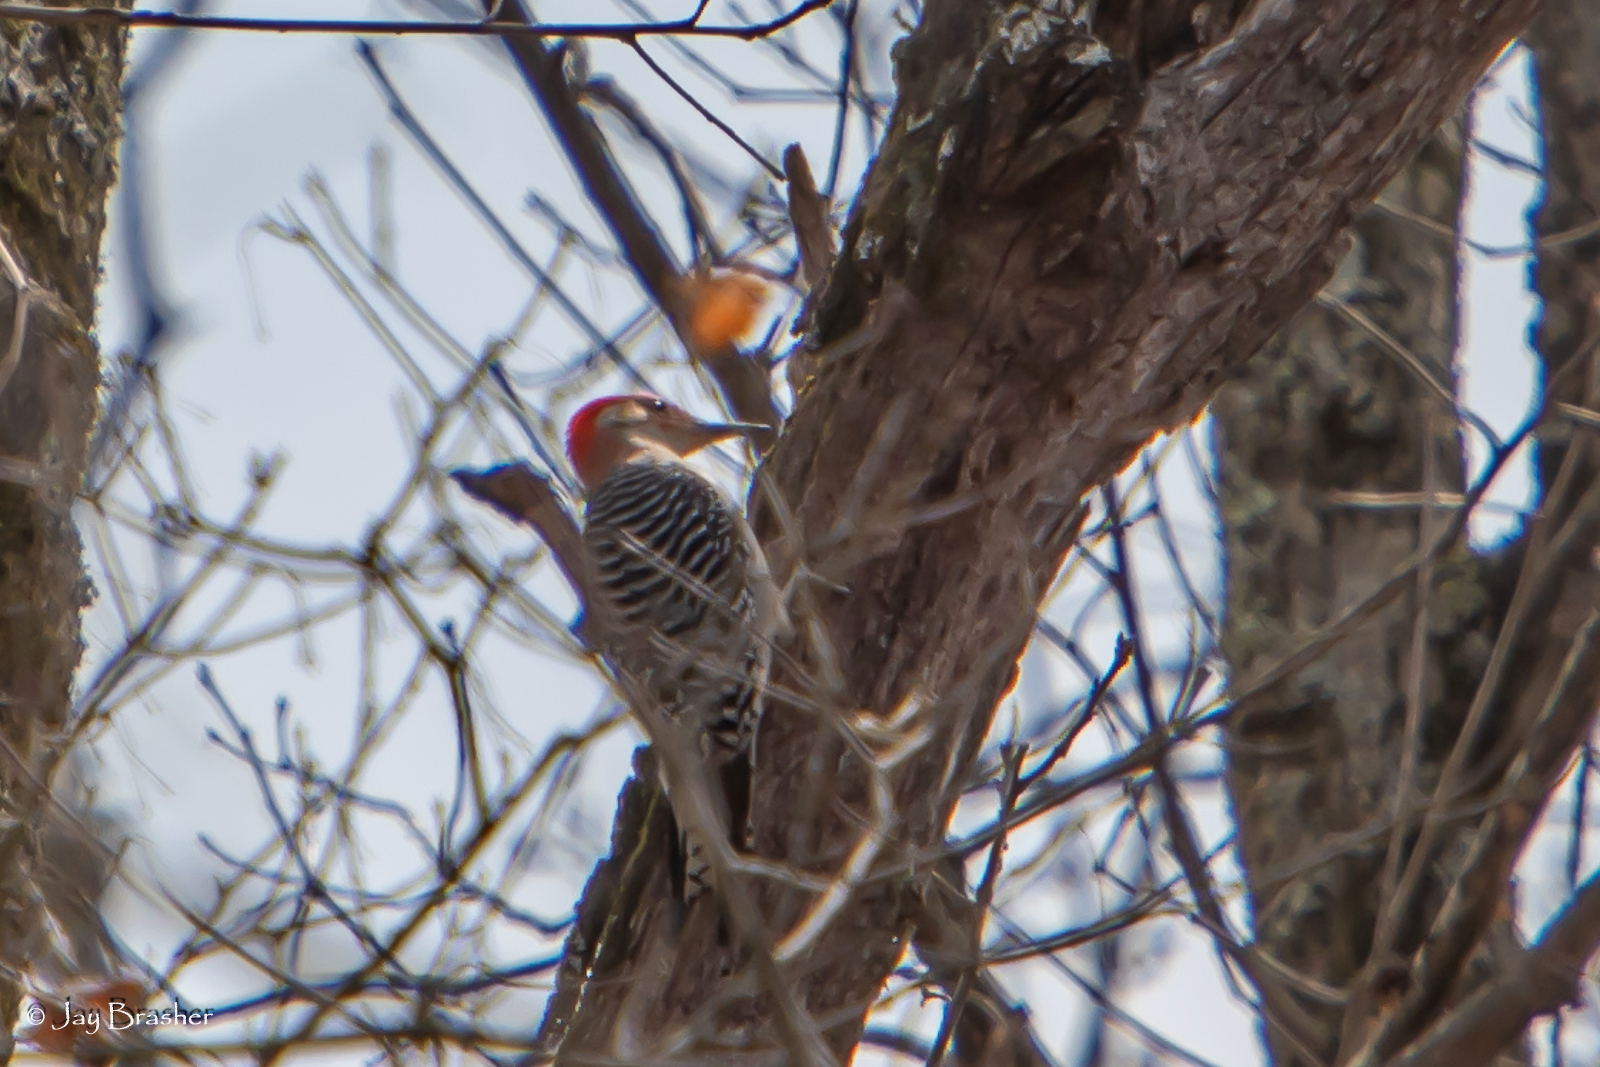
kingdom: Animalia
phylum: Chordata
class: Aves
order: Piciformes
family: Picidae
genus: Melanerpes
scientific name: Melanerpes carolinus
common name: Red-bellied woodpecker
